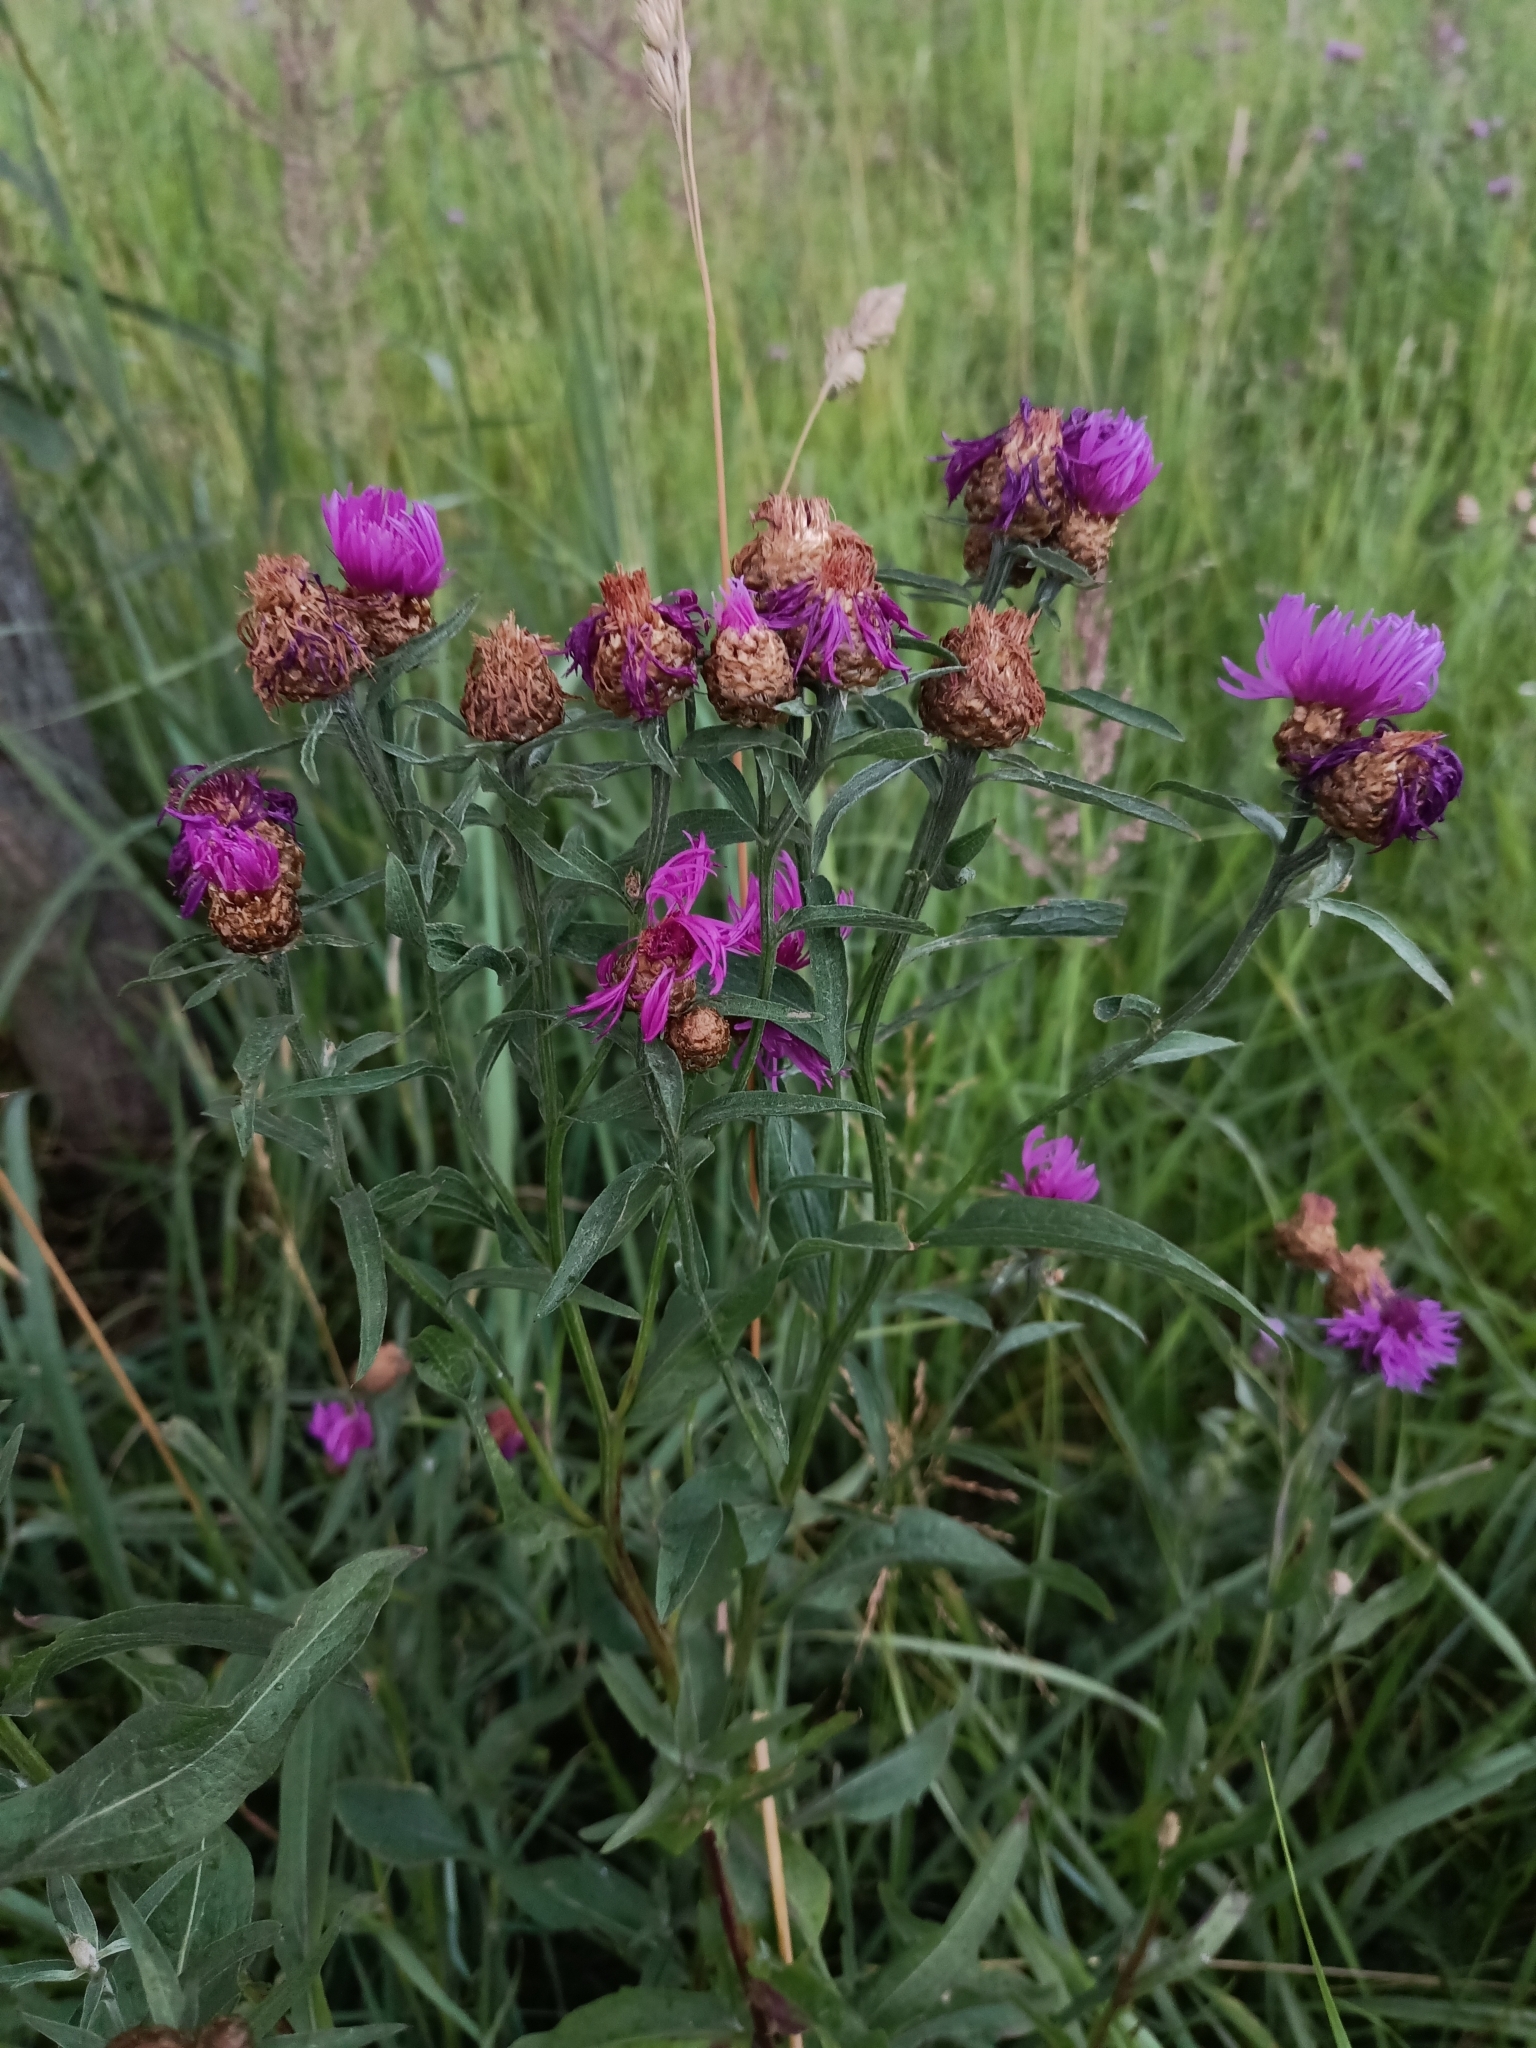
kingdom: Plantae
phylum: Tracheophyta
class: Magnoliopsida
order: Asterales
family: Asteraceae
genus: Centaurea
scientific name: Centaurea jacea
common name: Brown knapweed
